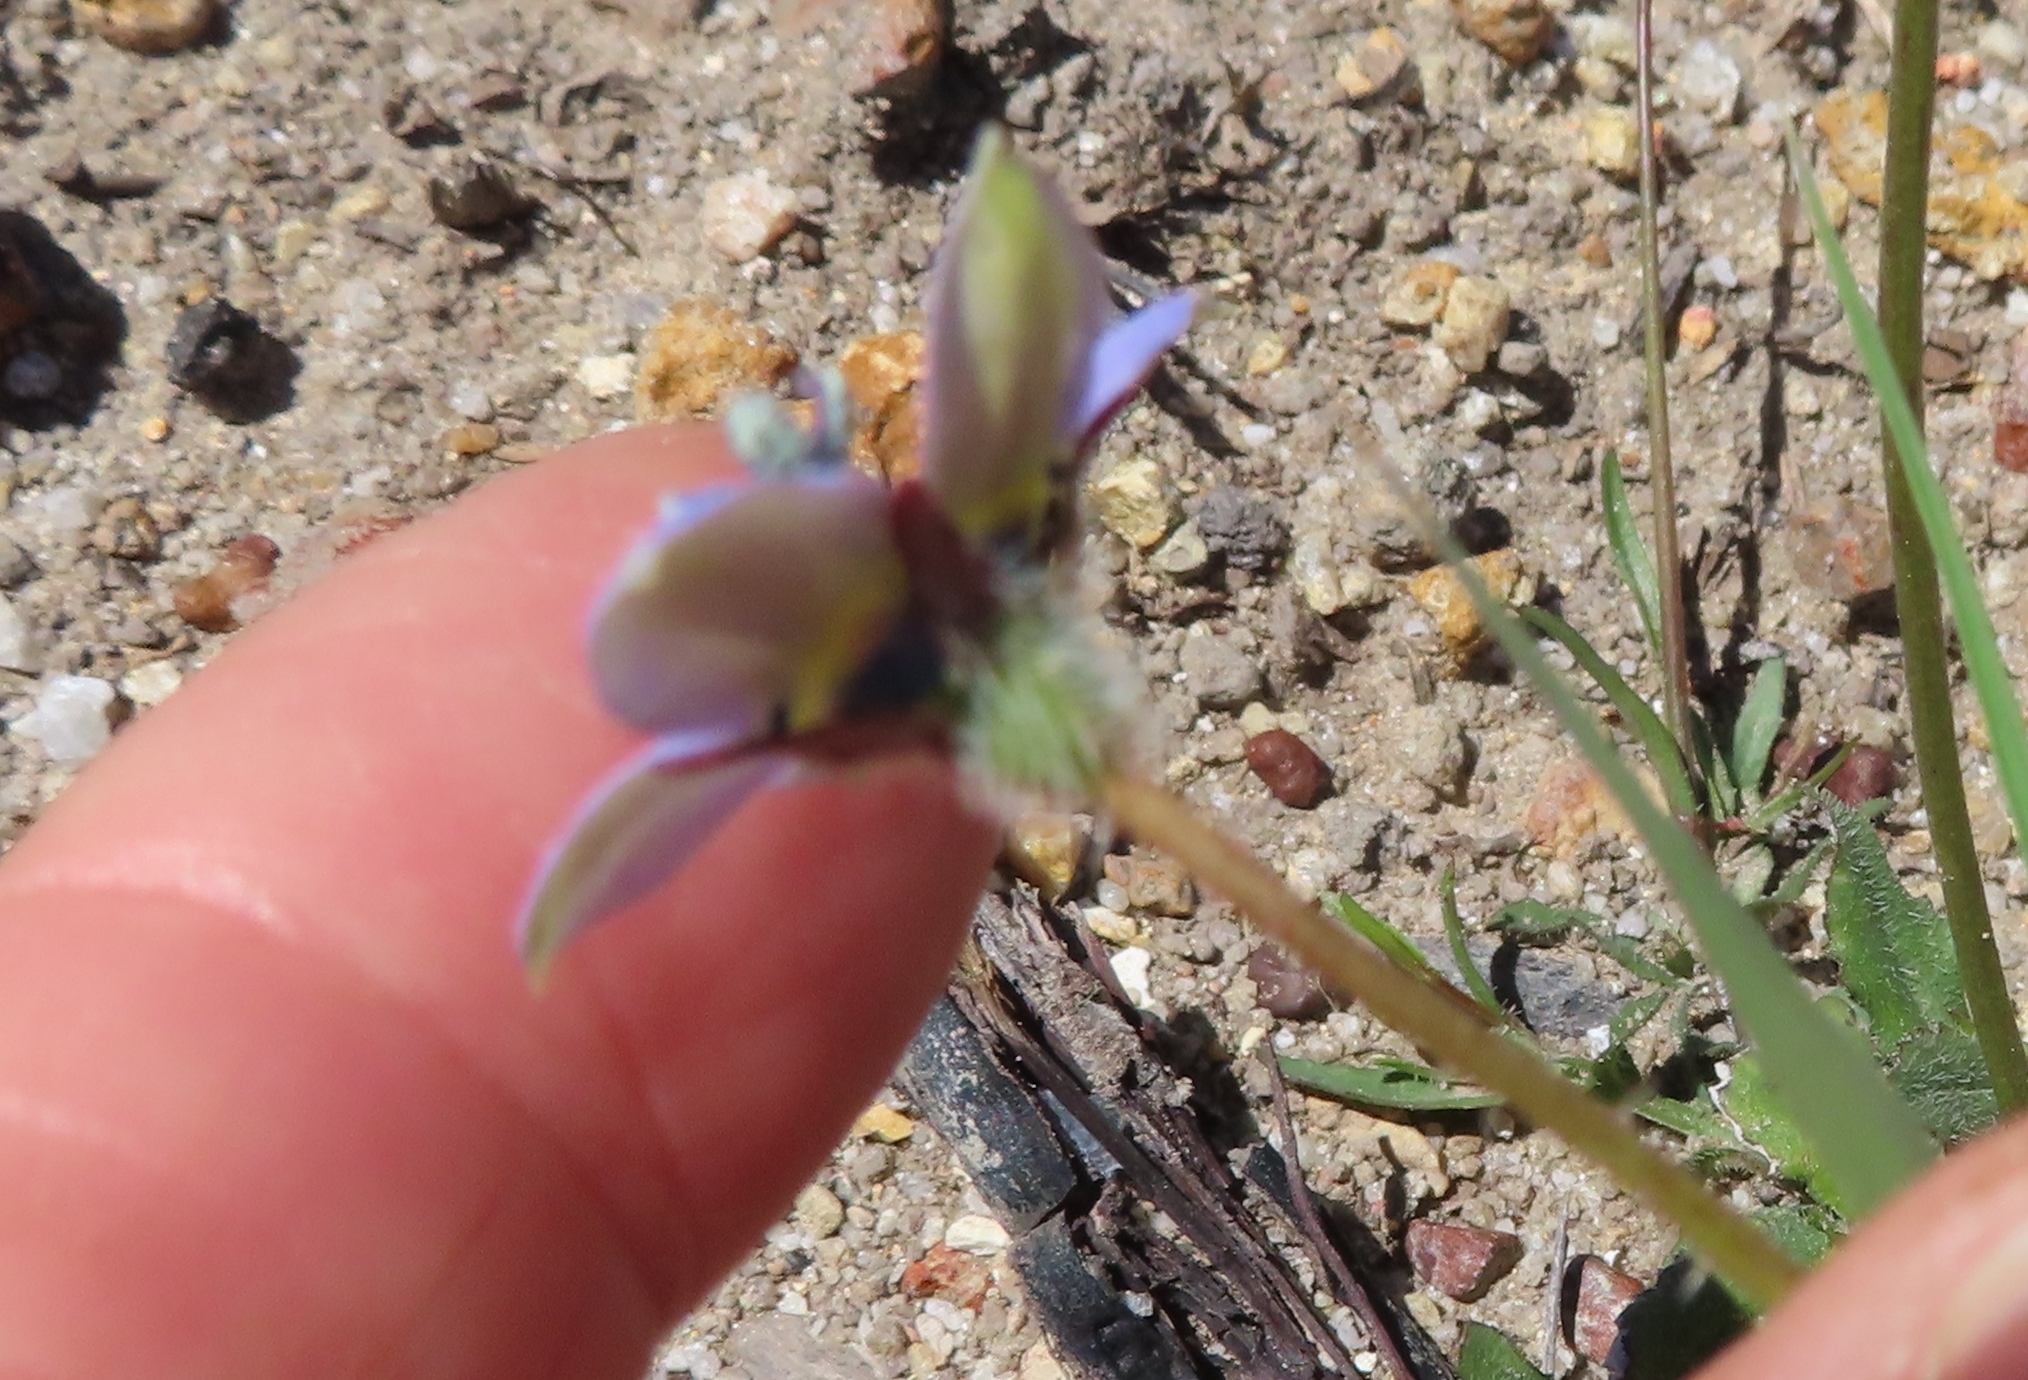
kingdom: Plantae
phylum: Tracheophyta
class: Magnoliopsida
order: Asterales
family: Campanulaceae
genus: Wahlenbergia
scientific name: Wahlenbergia capensis
